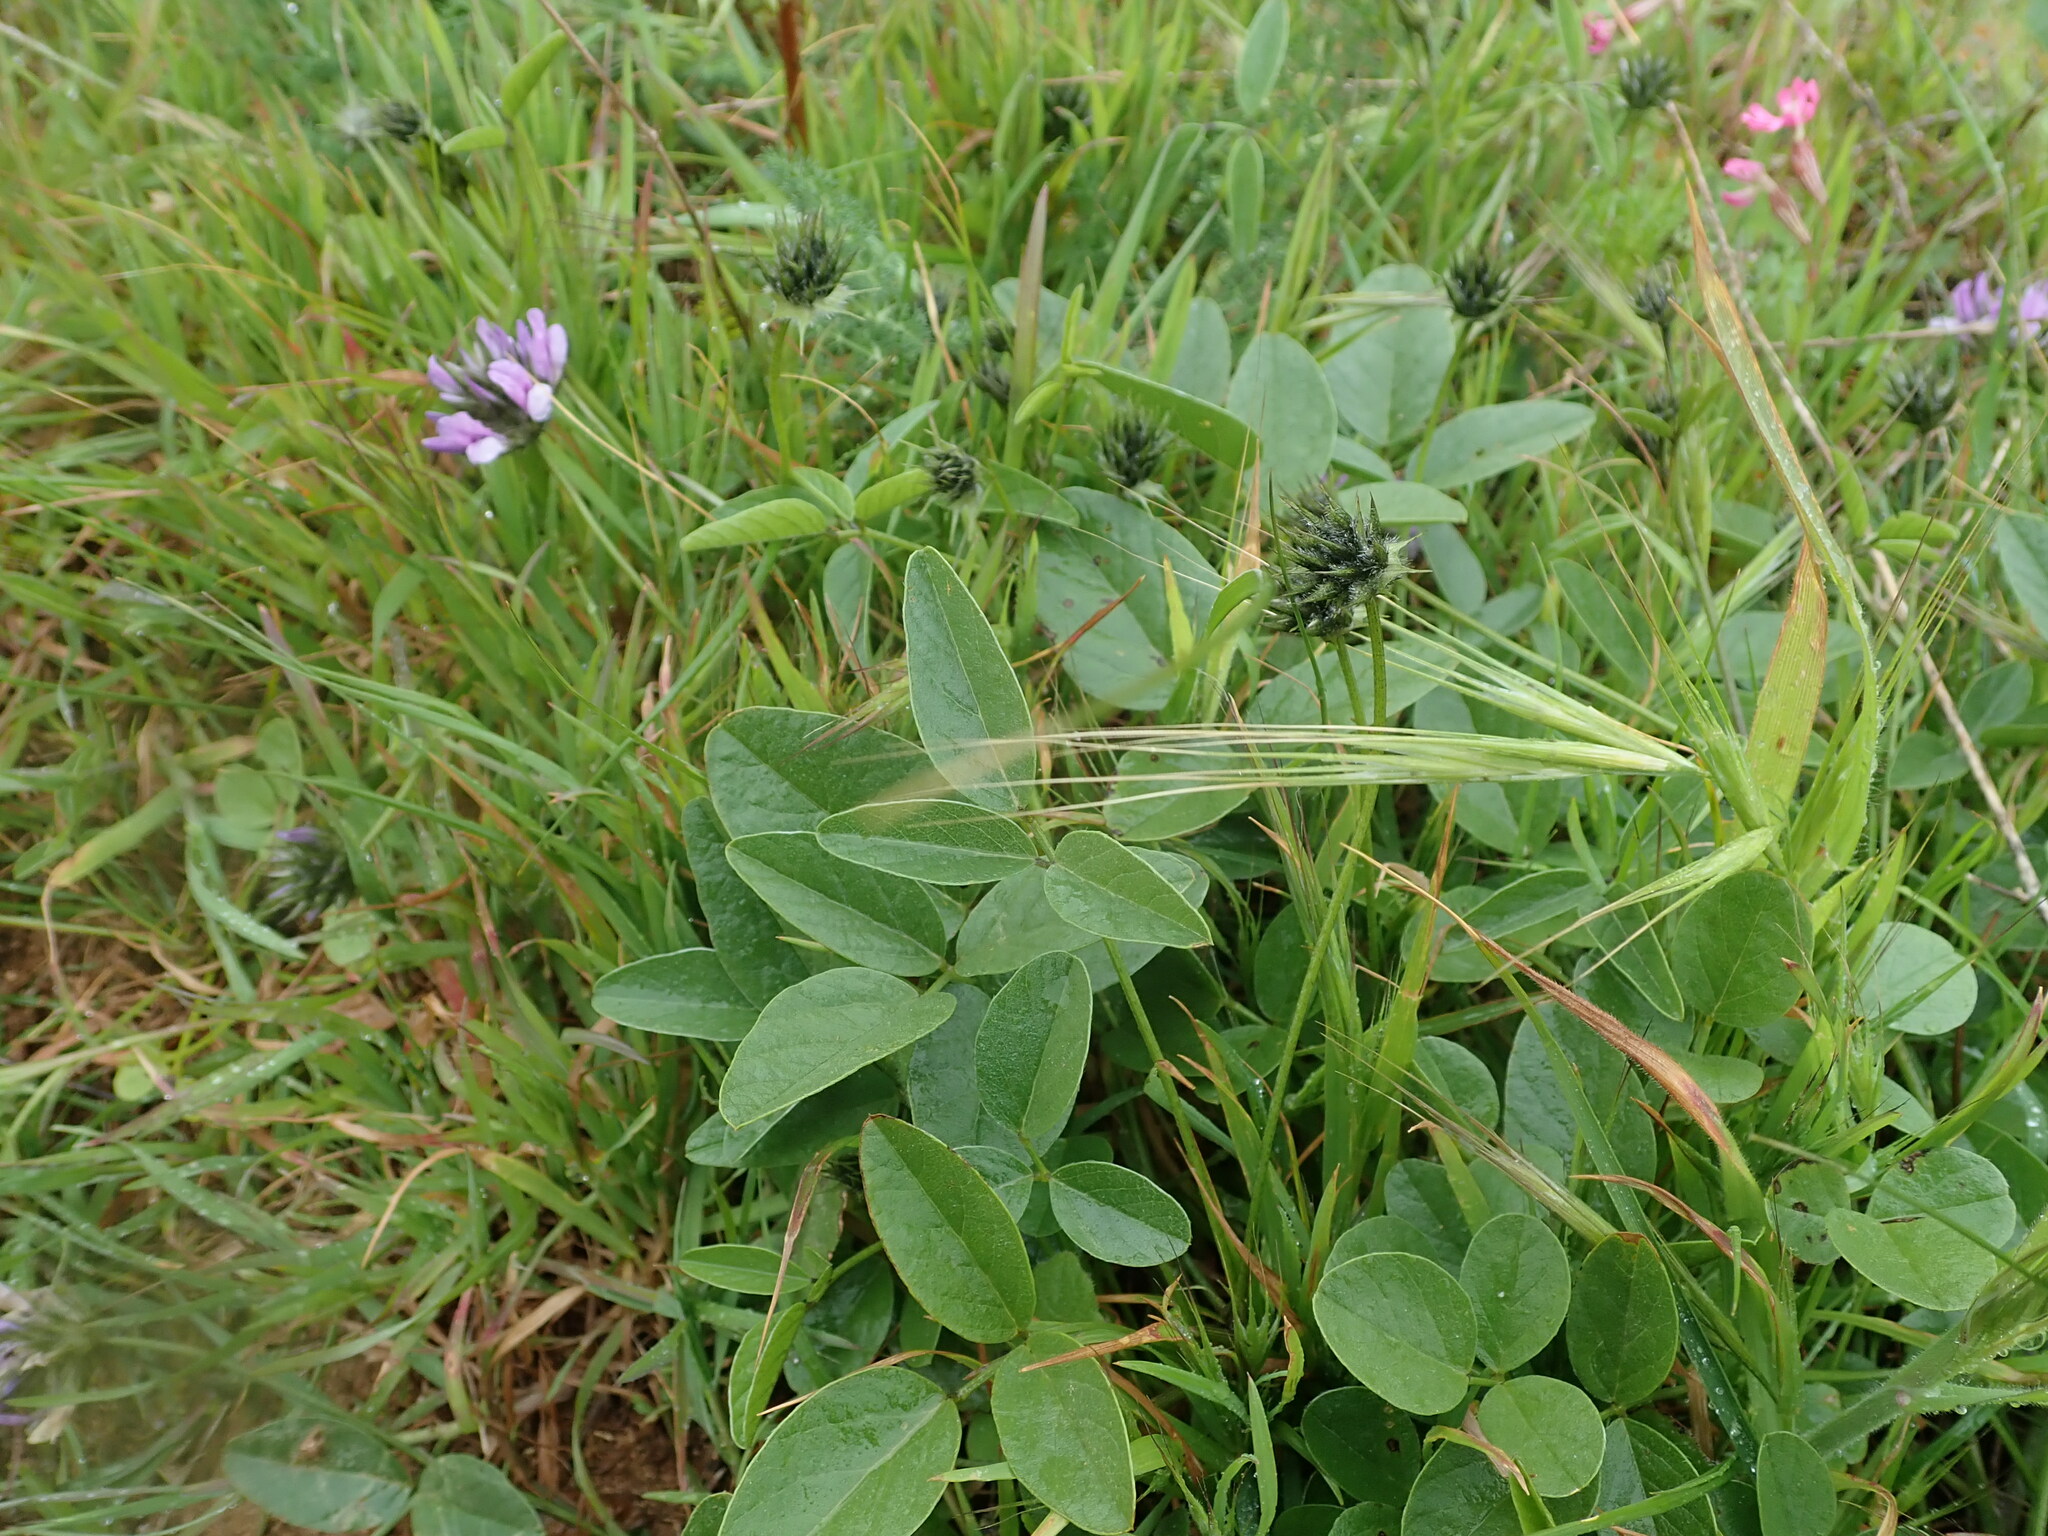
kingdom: Plantae
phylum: Tracheophyta
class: Magnoliopsida
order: Fabales
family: Fabaceae
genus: Bituminaria
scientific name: Bituminaria bituminosa
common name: Arabian pea
